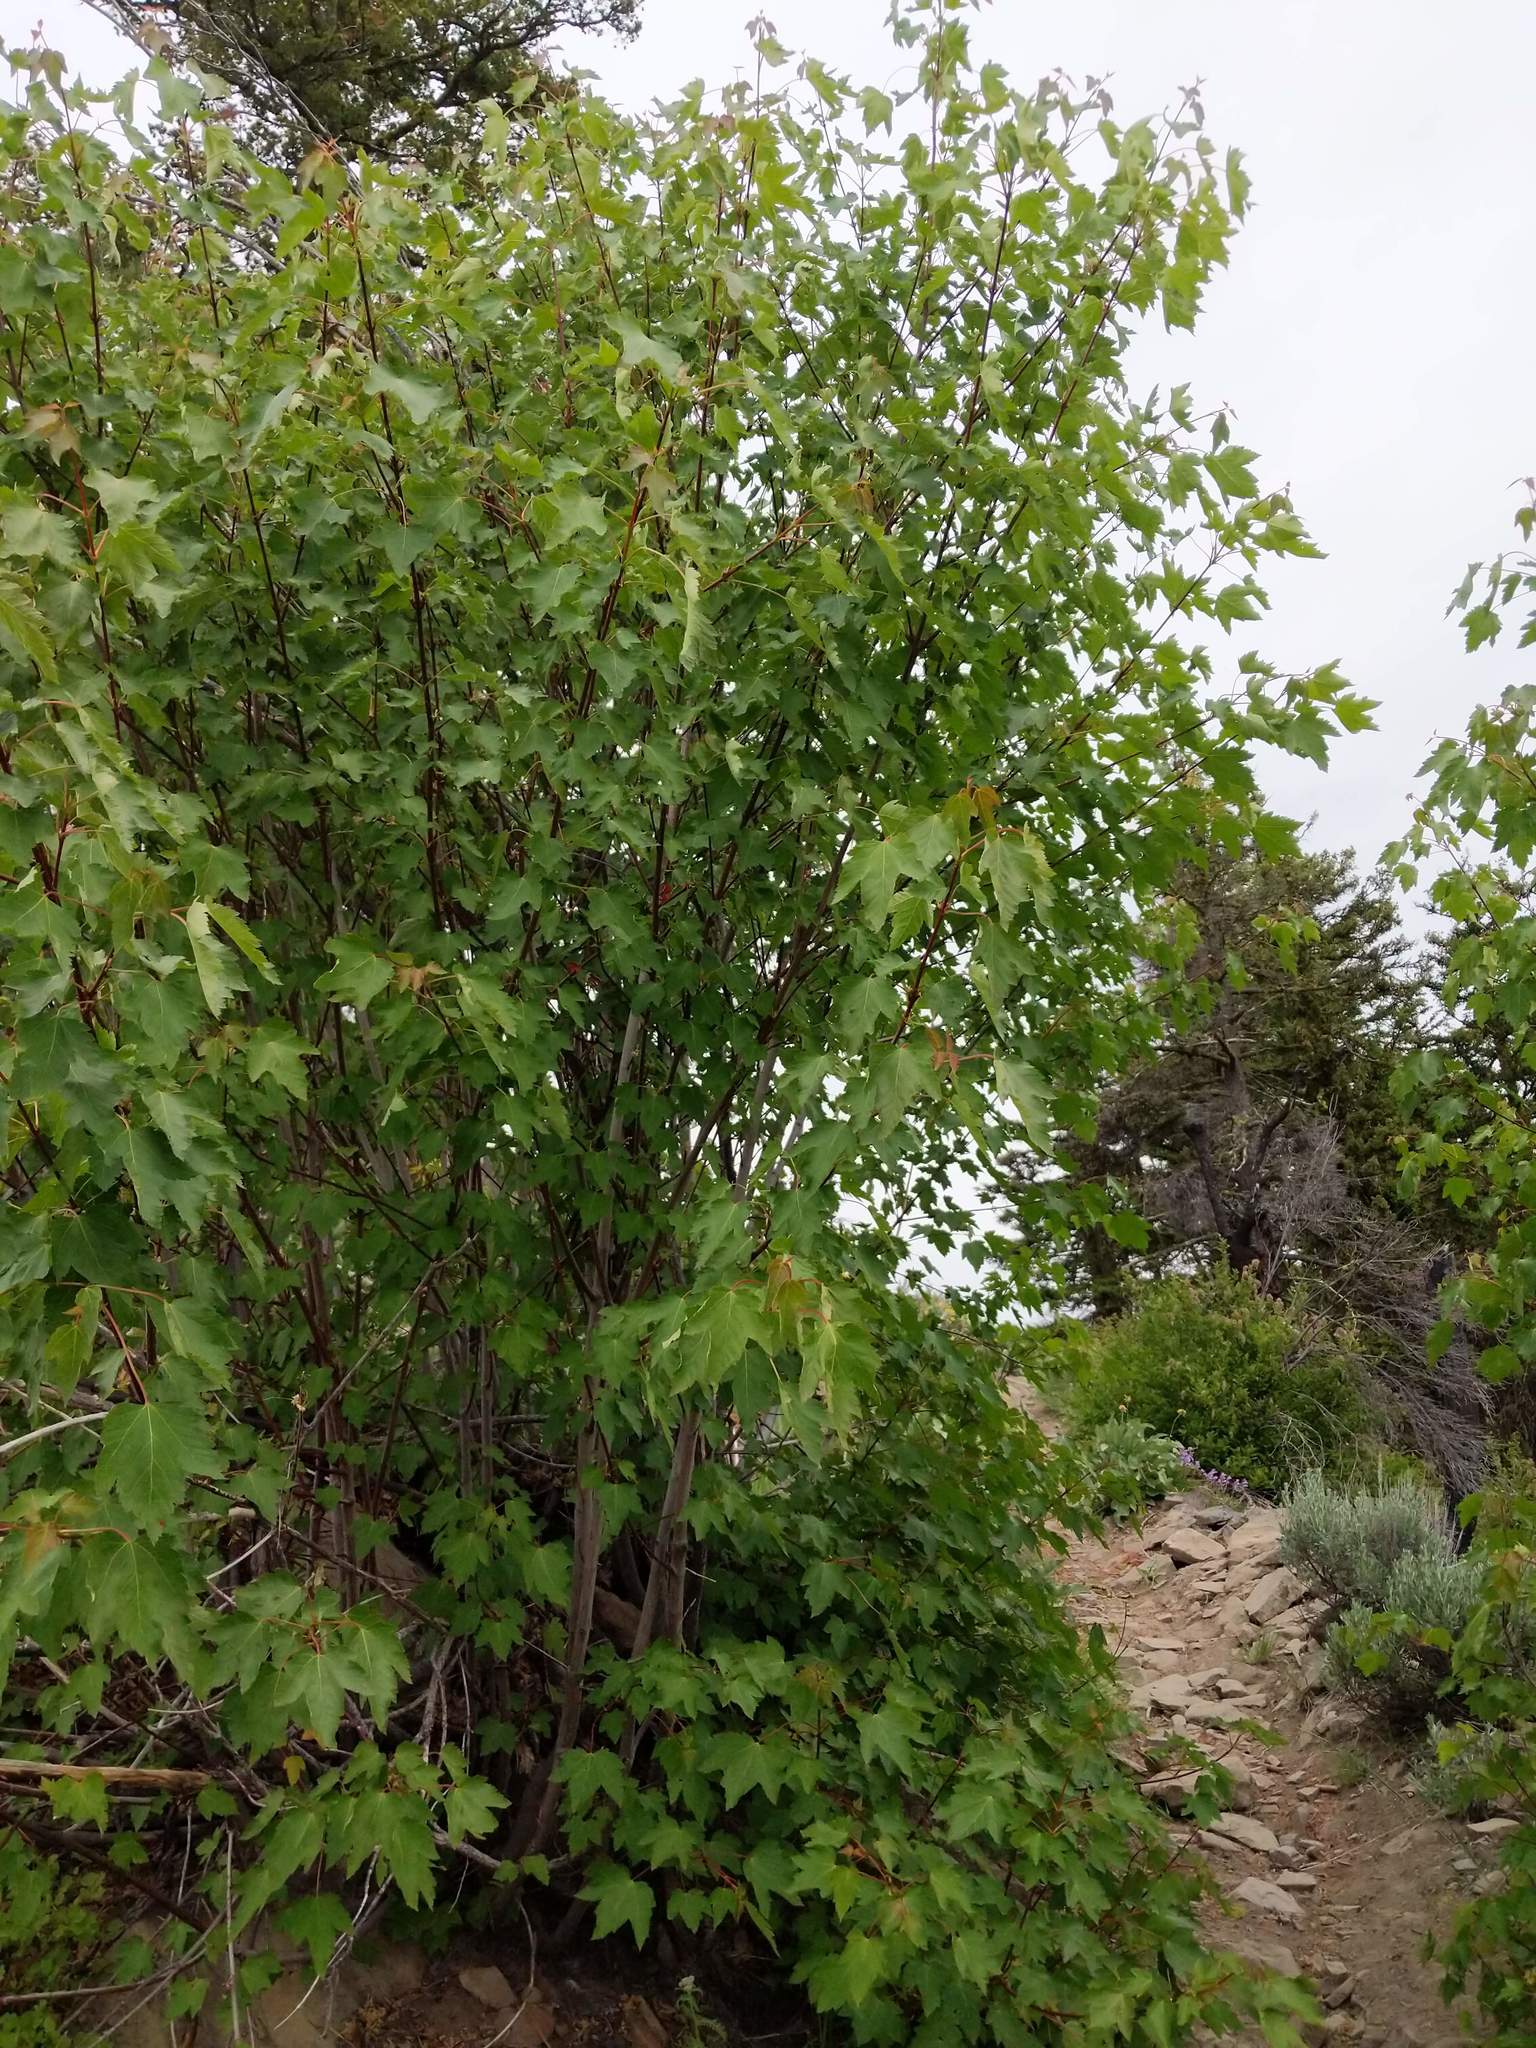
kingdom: Plantae
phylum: Tracheophyta
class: Magnoliopsida
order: Sapindales
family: Sapindaceae
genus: Acer
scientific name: Acer glabrum
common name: Rocky mountain maple
